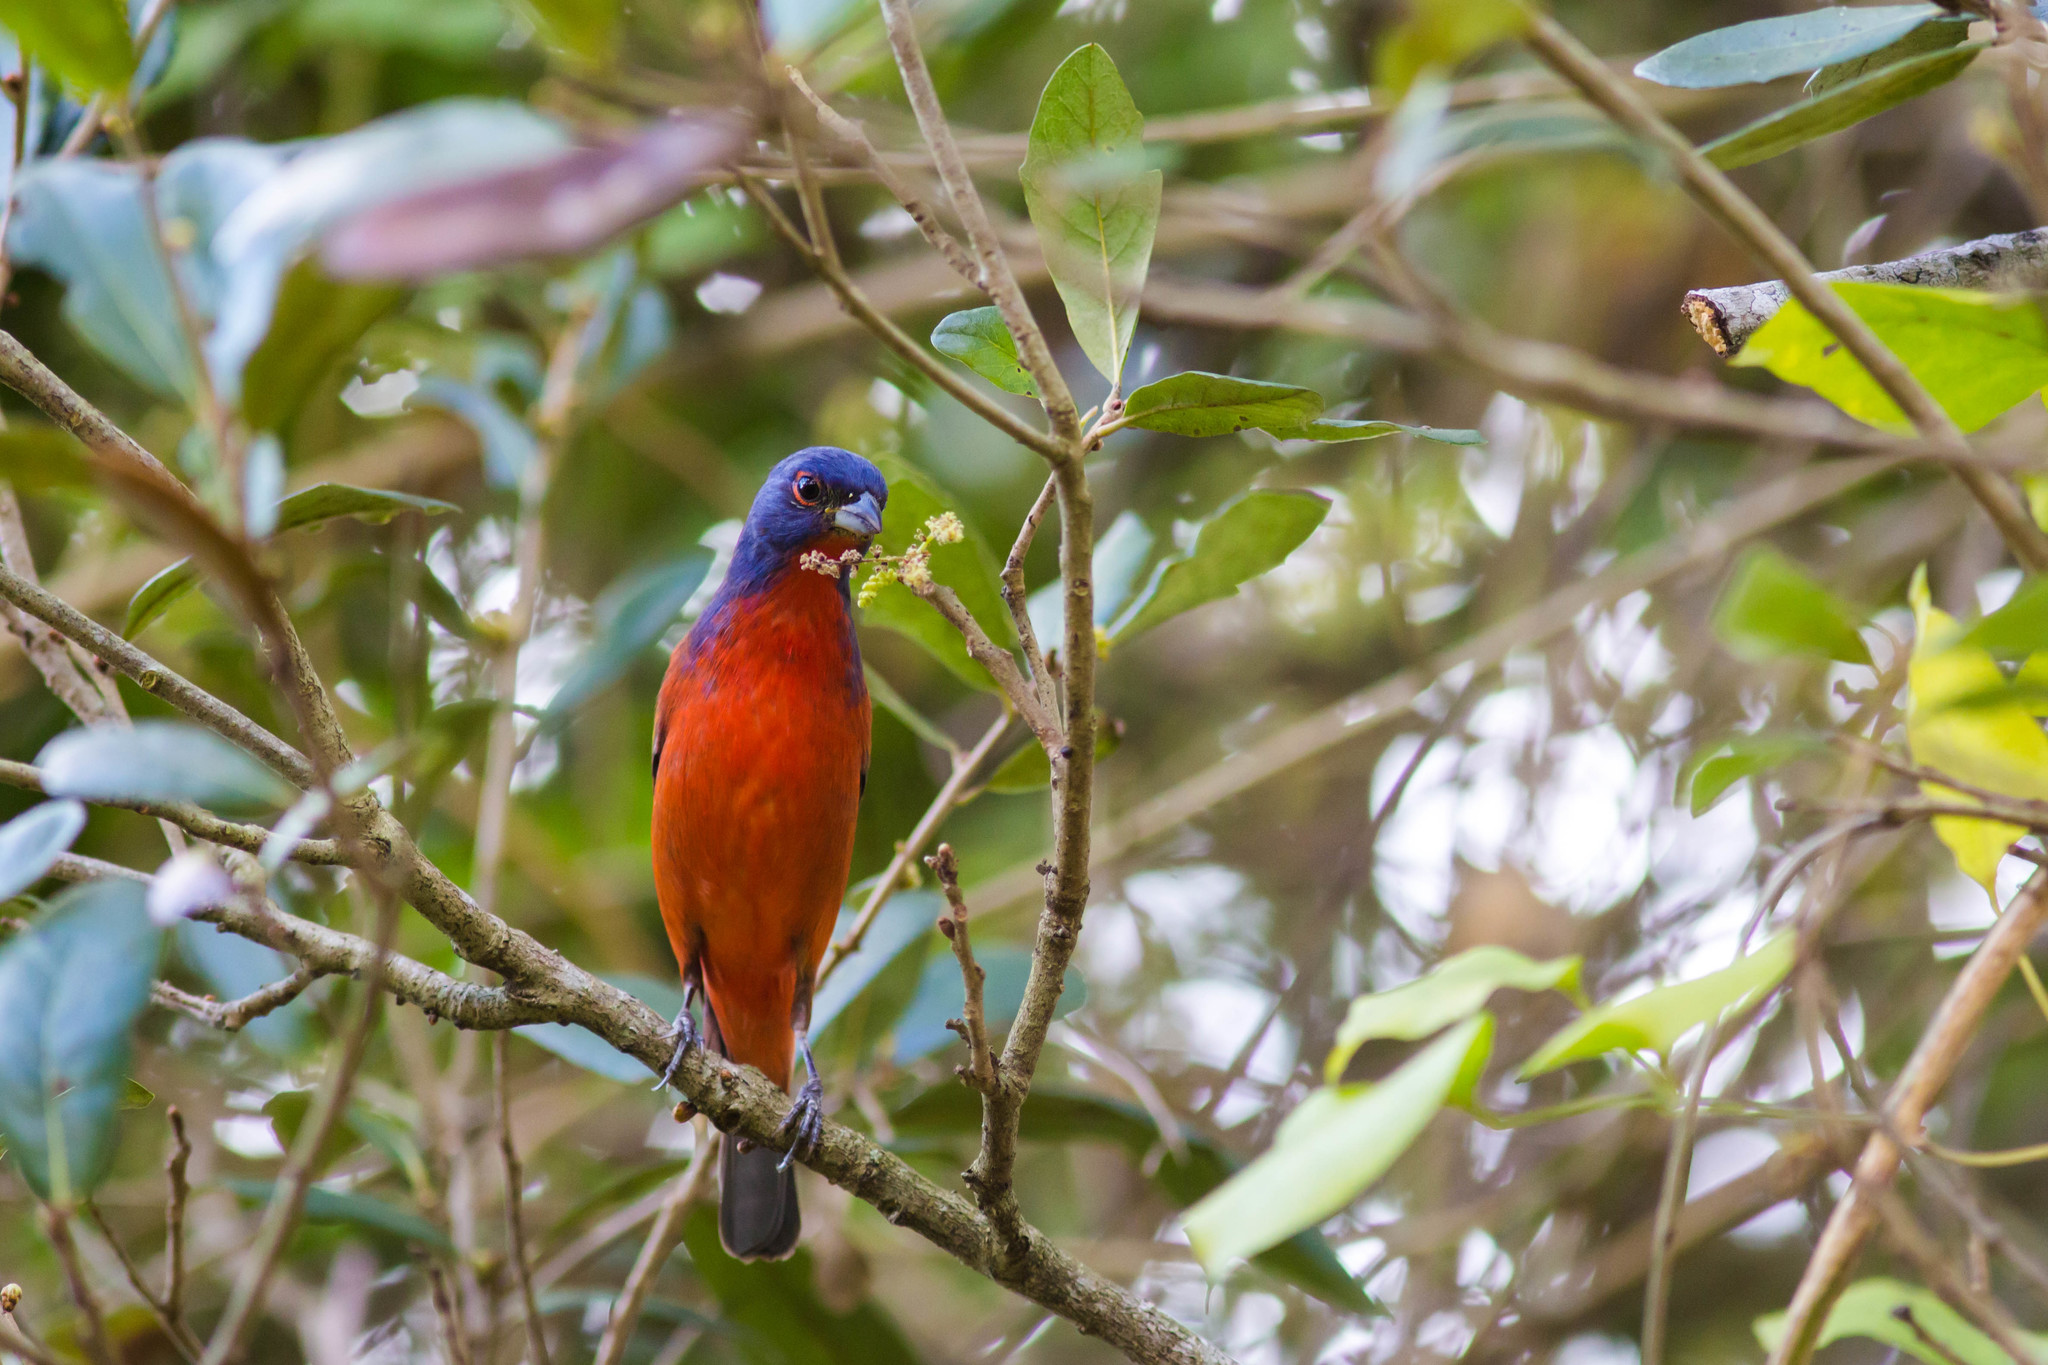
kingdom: Animalia
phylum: Chordata
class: Aves
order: Passeriformes
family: Cardinalidae
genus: Passerina
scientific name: Passerina ciris
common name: Painted bunting
